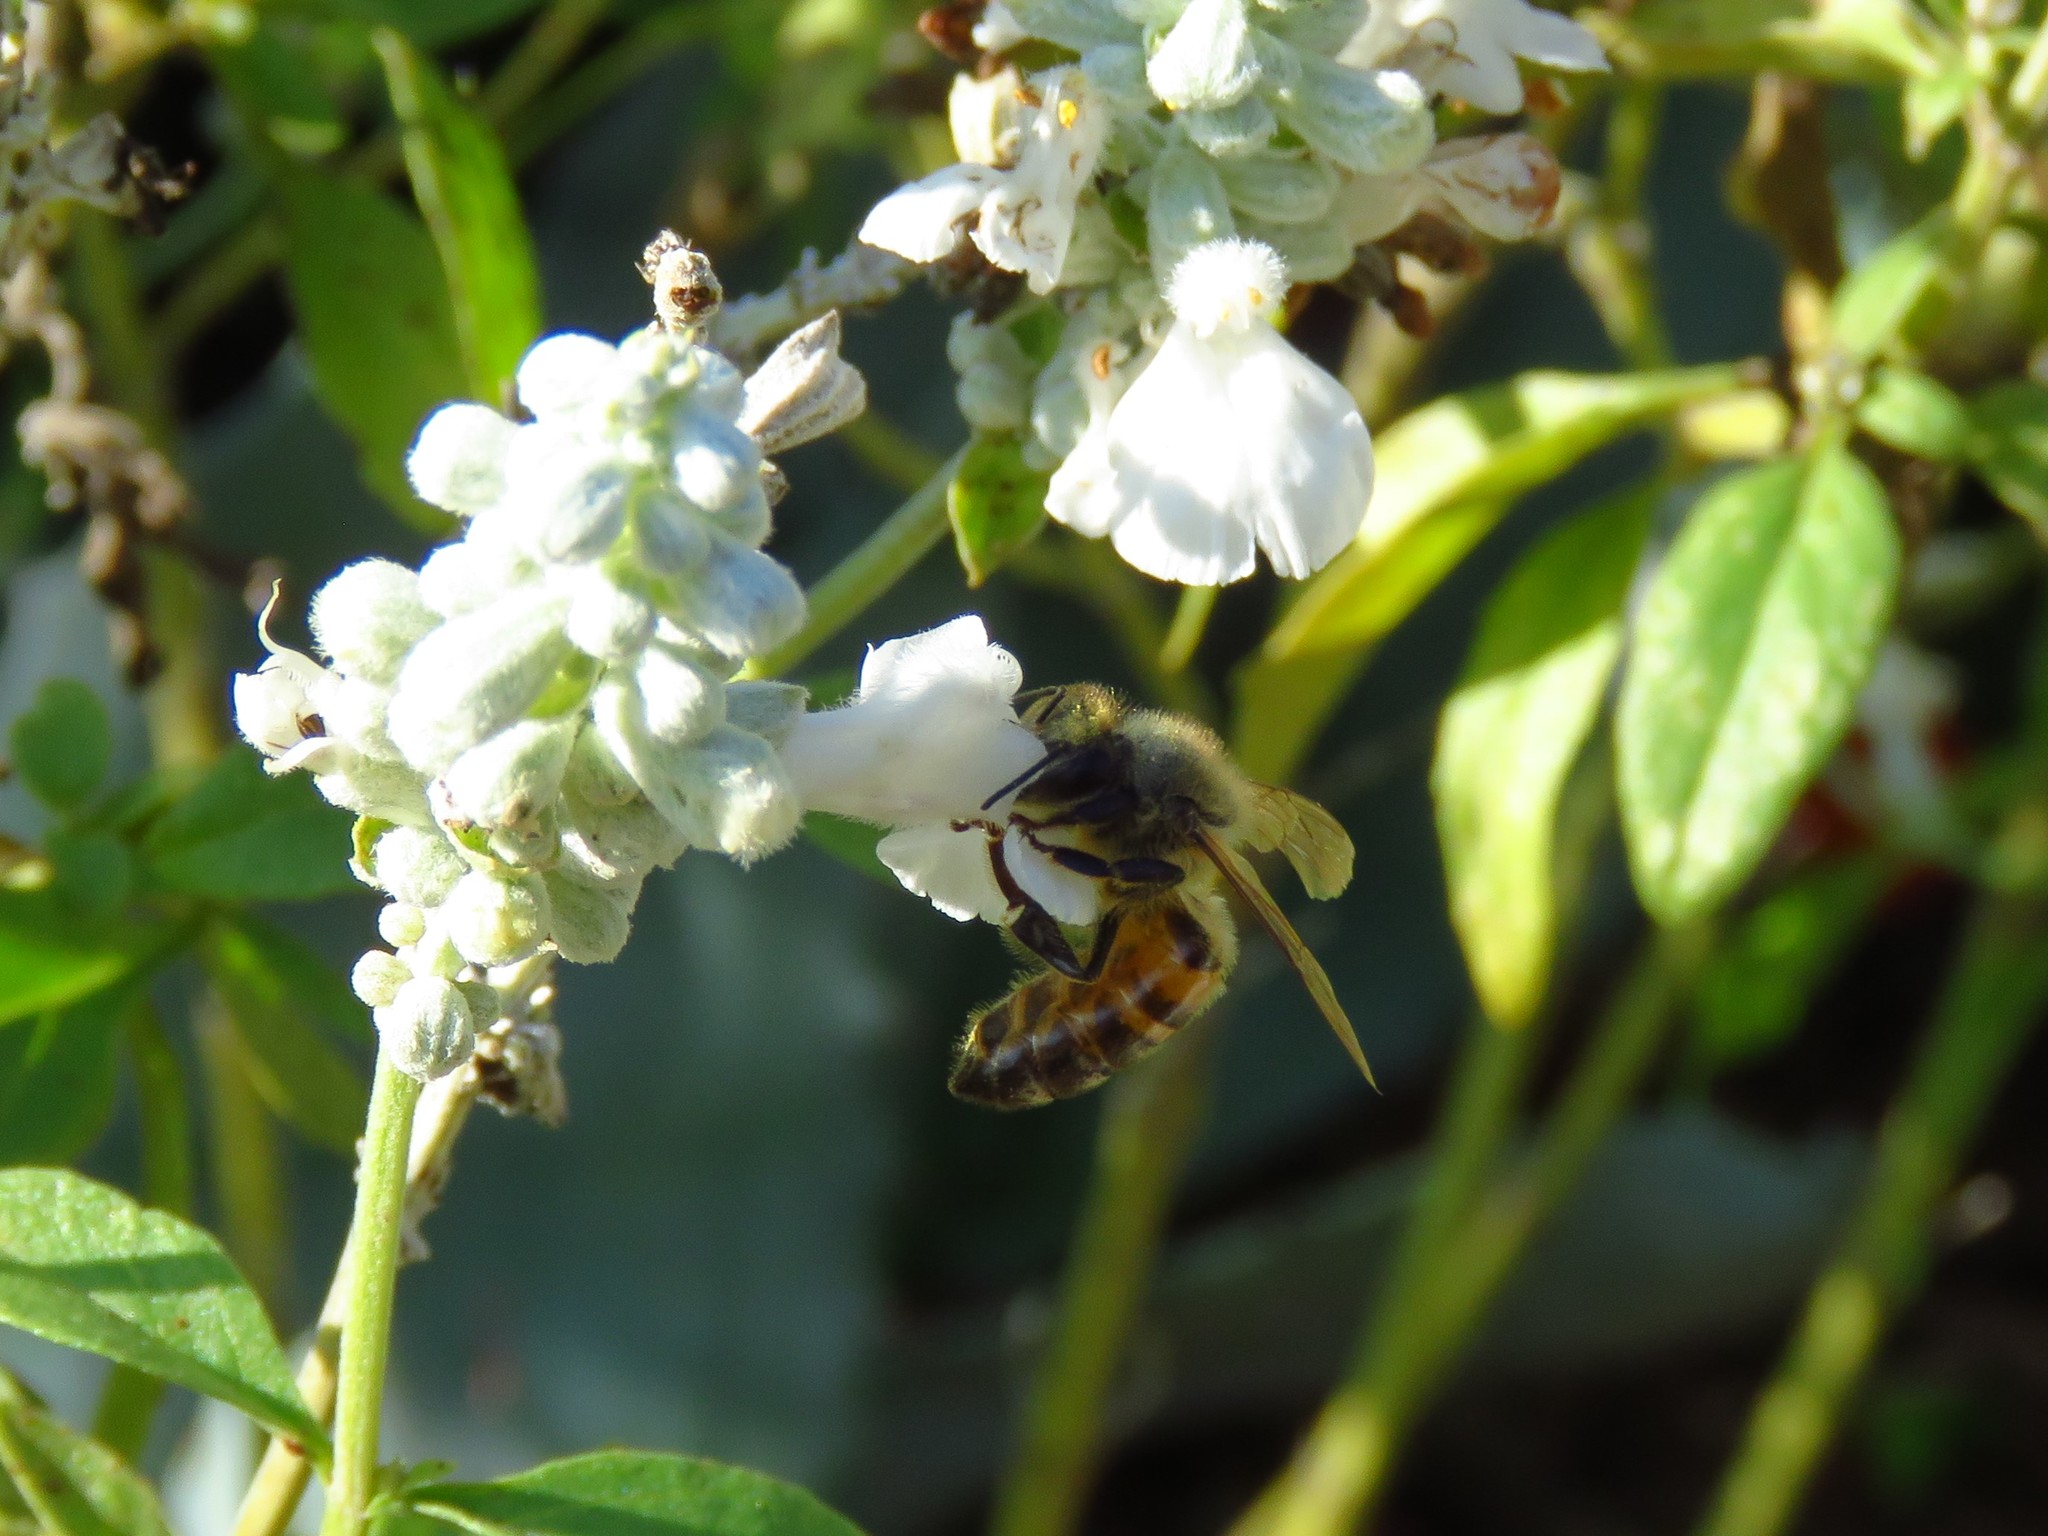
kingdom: Animalia
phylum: Arthropoda
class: Insecta
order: Hymenoptera
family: Apidae
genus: Apis
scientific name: Apis mellifera
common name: Honey bee
